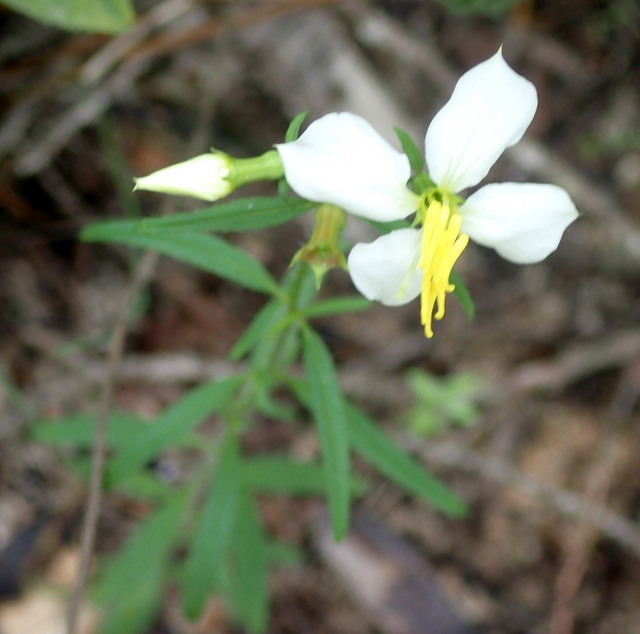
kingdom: Plantae
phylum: Tracheophyta
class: Magnoliopsida
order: Myrtales
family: Melastomataceae
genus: Rhexia
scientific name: Rhexia mariana
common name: Dull meadow-pitcher
